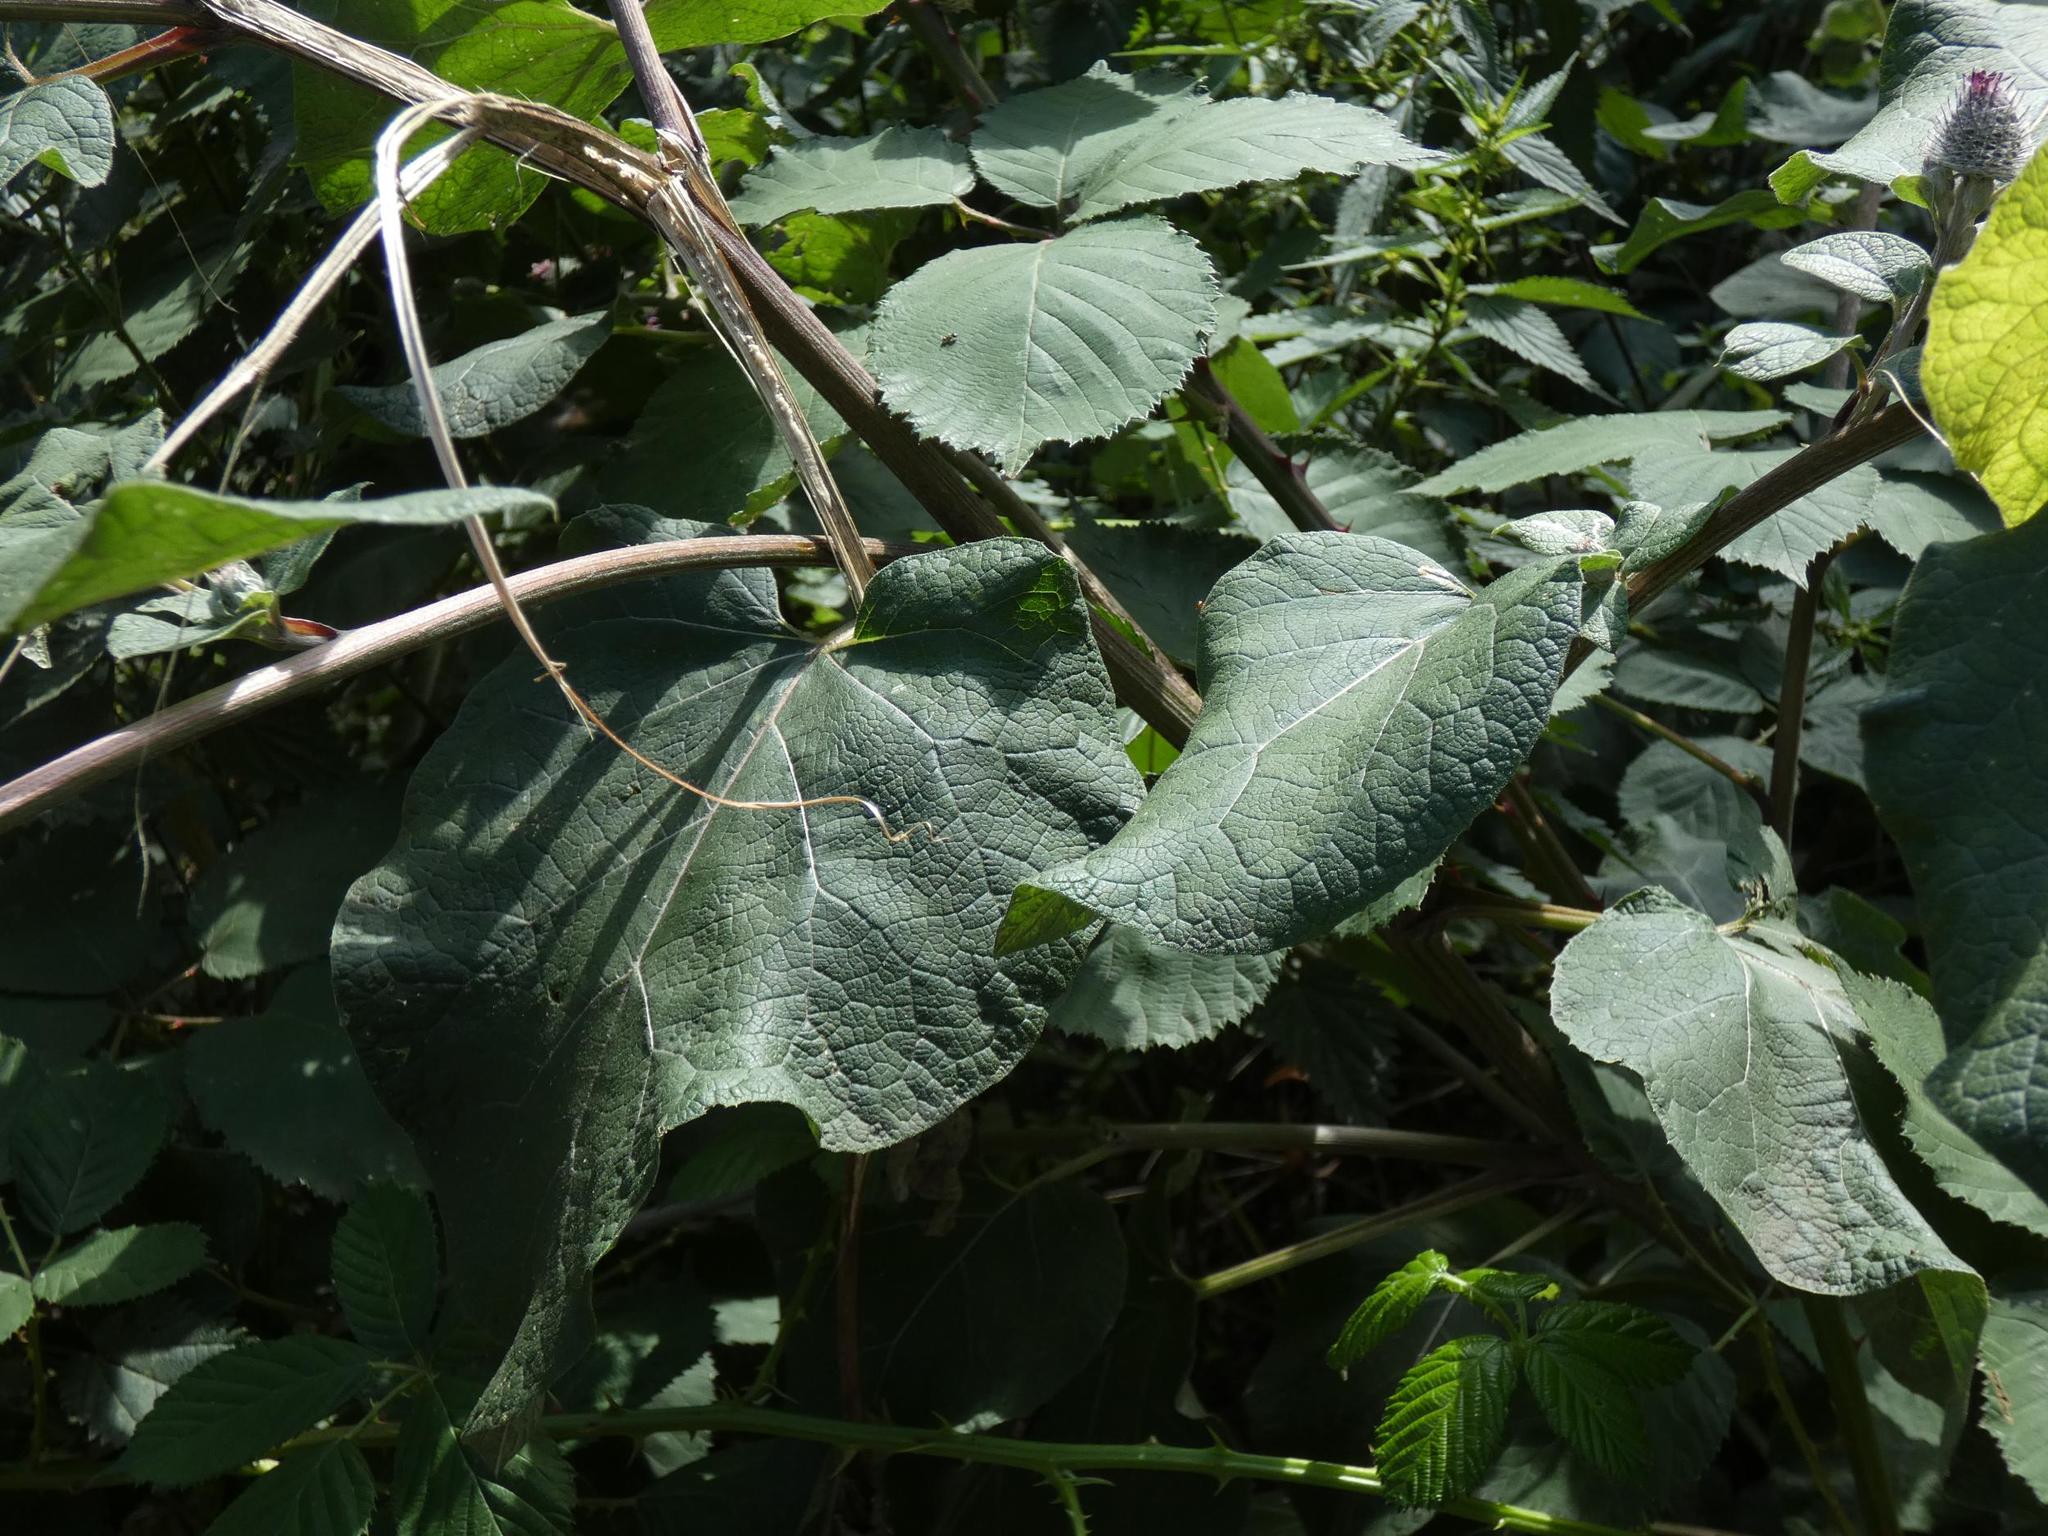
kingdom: Plantae
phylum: Tracheophyta
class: Magnoliopsida
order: Asterales
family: Asteraceae
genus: Arctium
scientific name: Arctium tomentosum
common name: Woolly burdock
